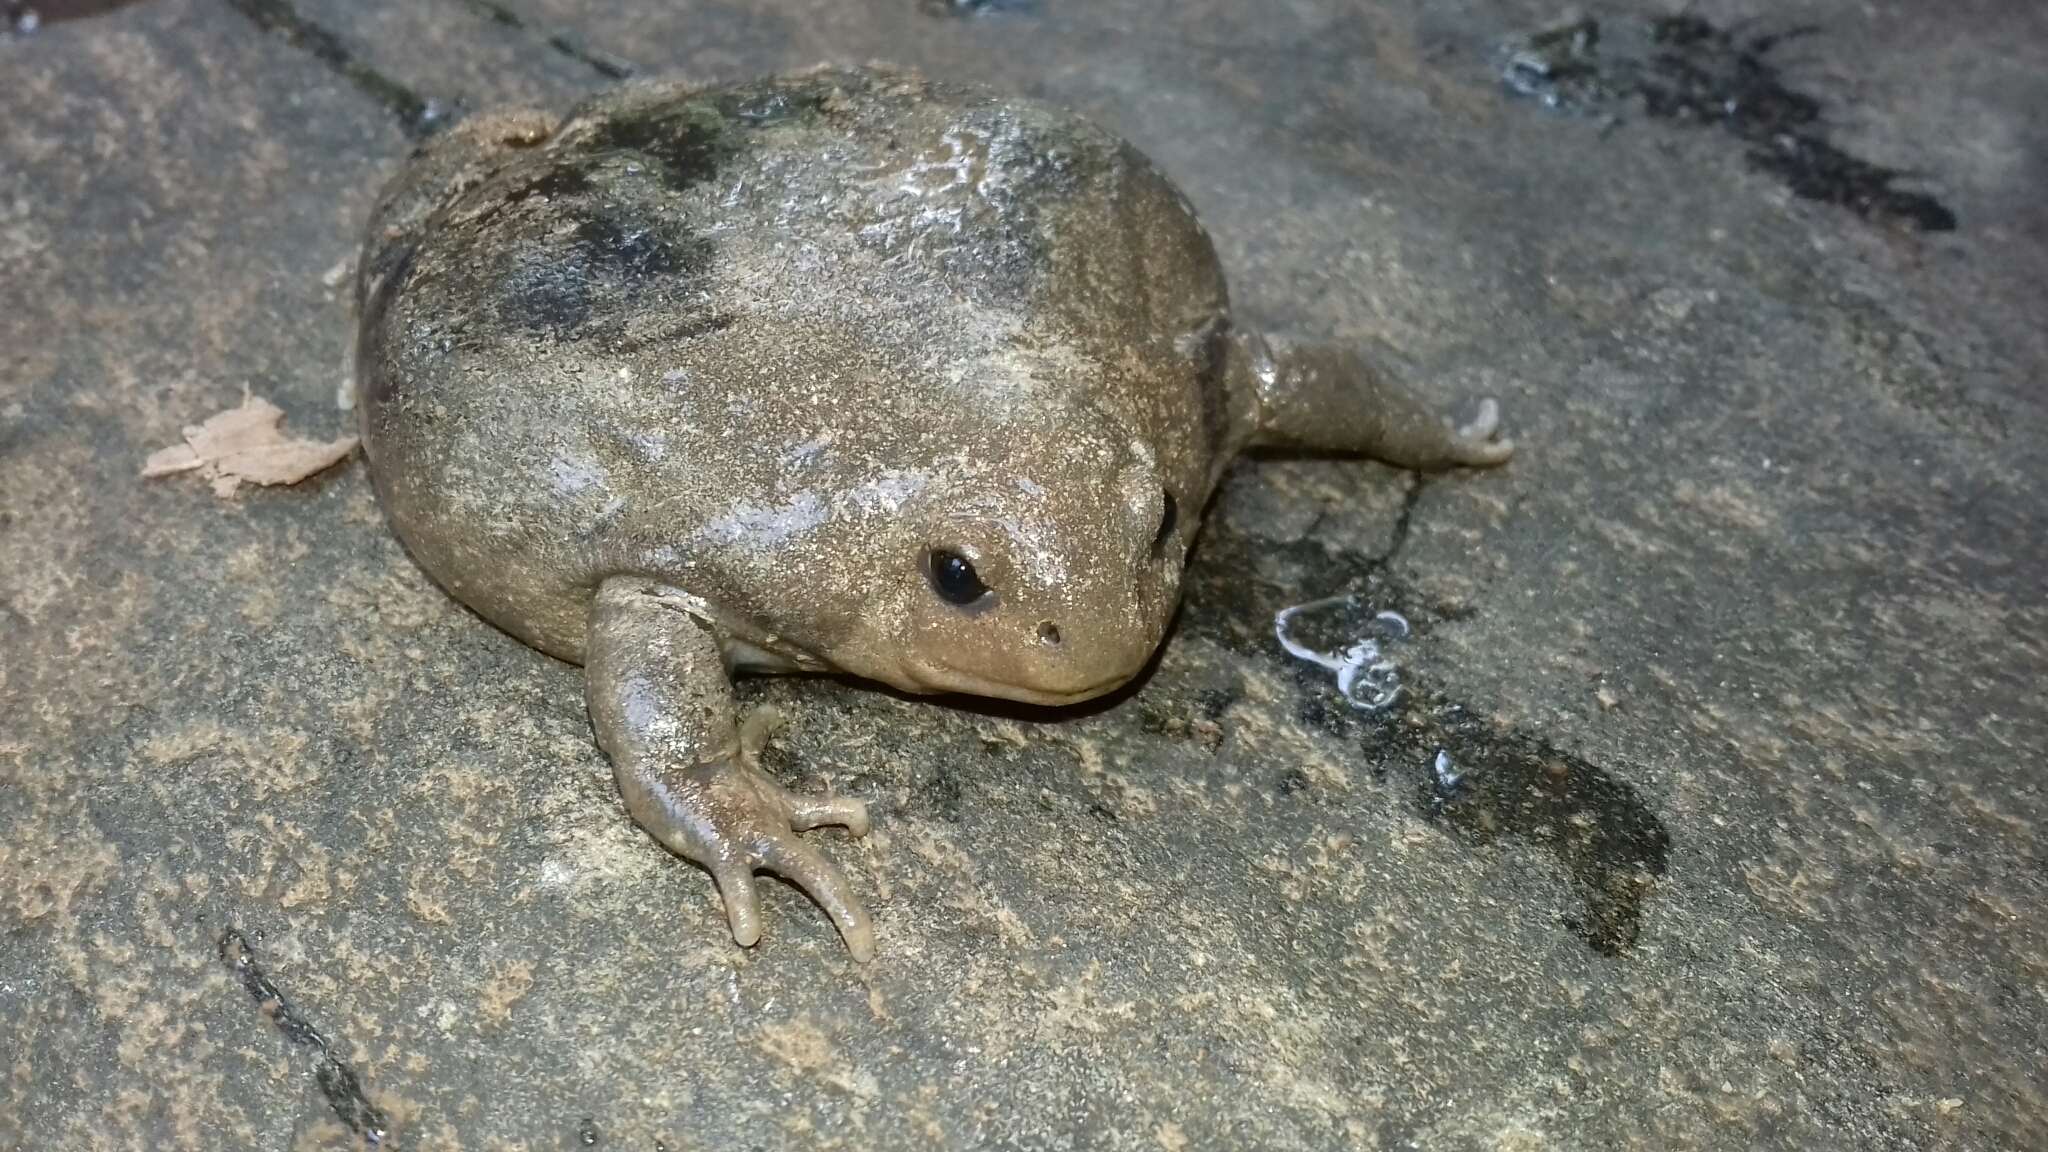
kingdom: Animalia
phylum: Chordata
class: Amphibia
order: Anura
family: Microhylidae
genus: Uperodon
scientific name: Uperodon globulosus
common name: Indian globular frog
